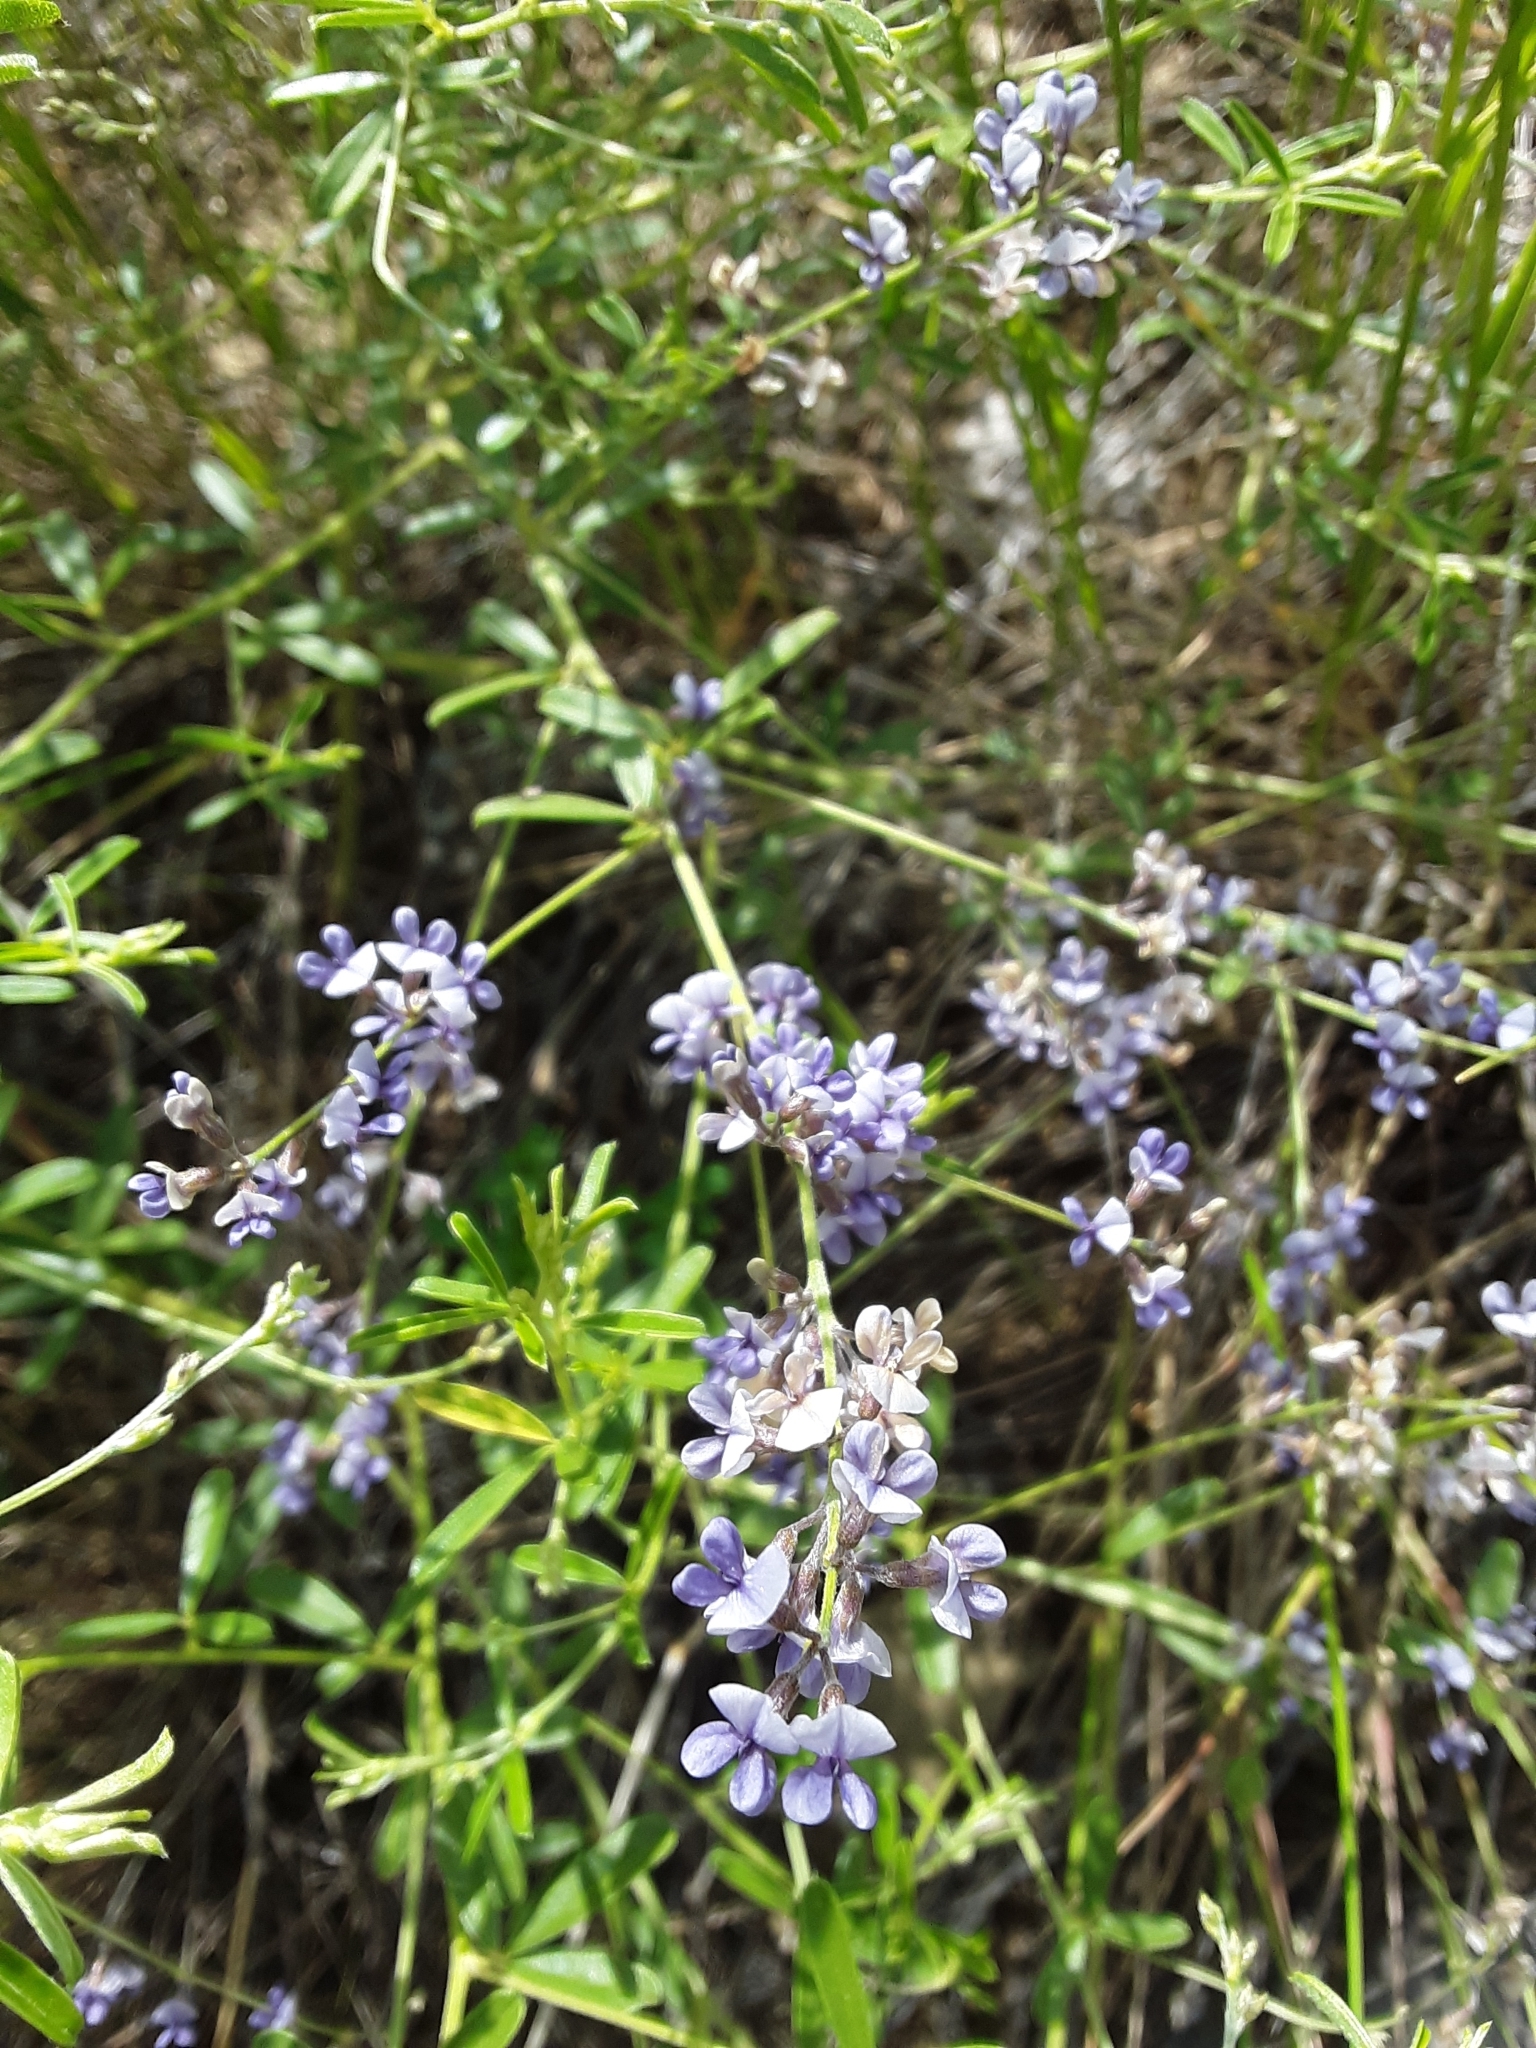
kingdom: Plantae
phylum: Tracheophyta
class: Magnoliopsida
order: Fabales
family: Fabaceae
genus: Pediomelum
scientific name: Pediomelum tenuiflorum
